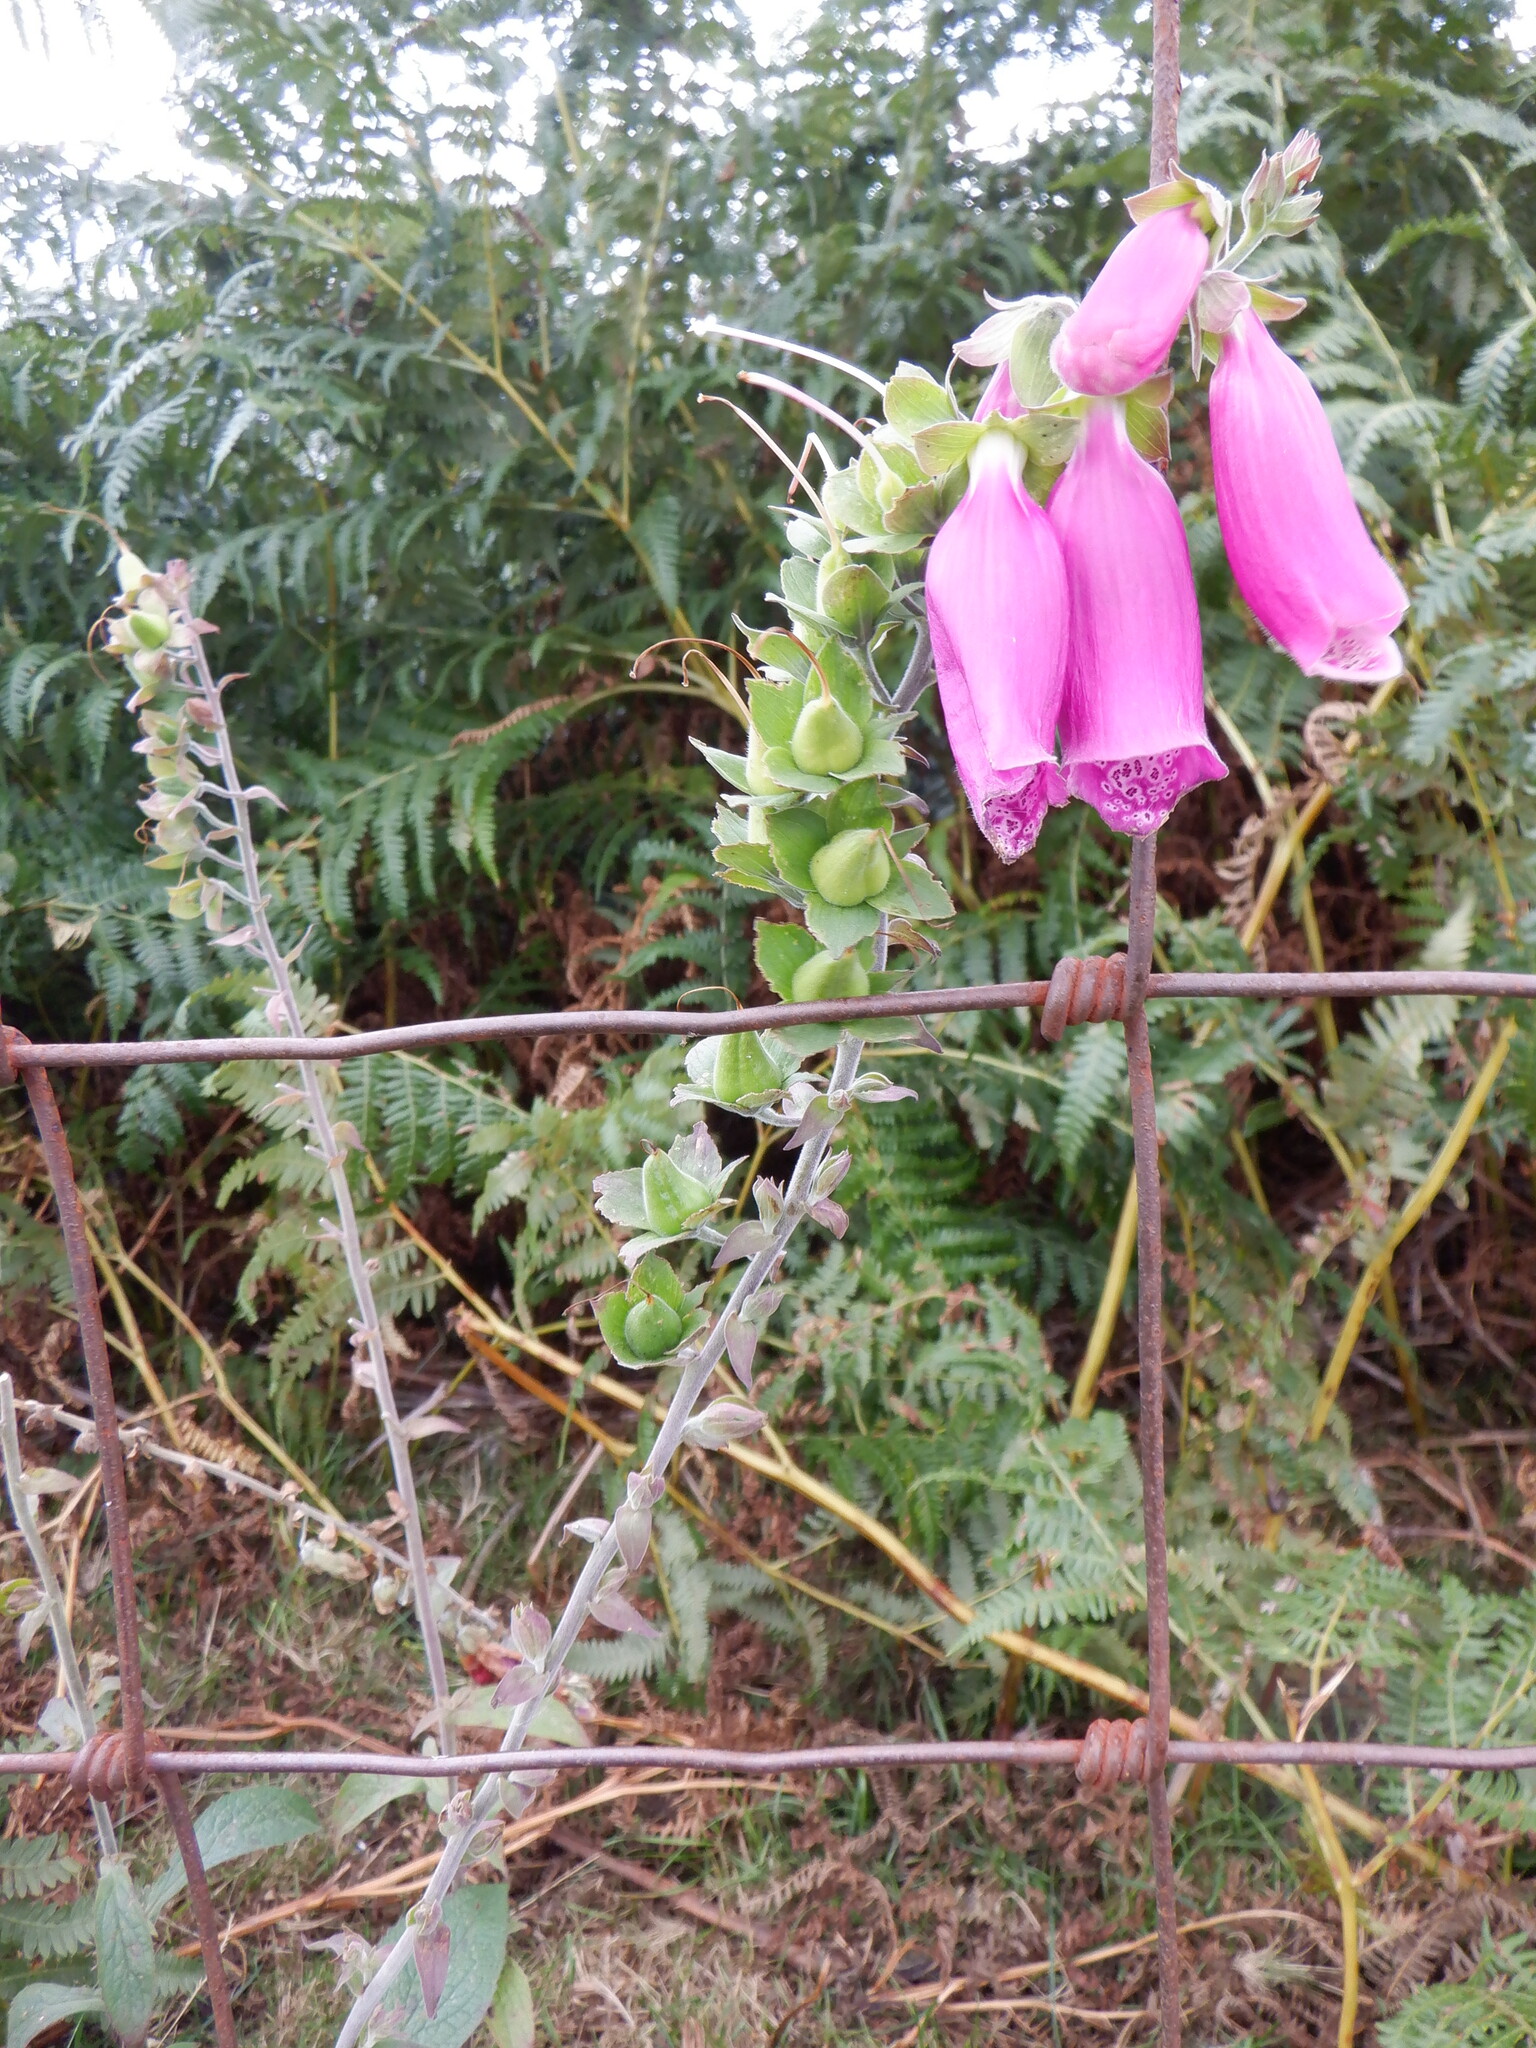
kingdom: Plantae
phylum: Tracheophyta
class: Magnoliopsida
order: Lamiales
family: Plantaginaceae
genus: Digitalis
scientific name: Digitalis purpurea
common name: Foxglove
